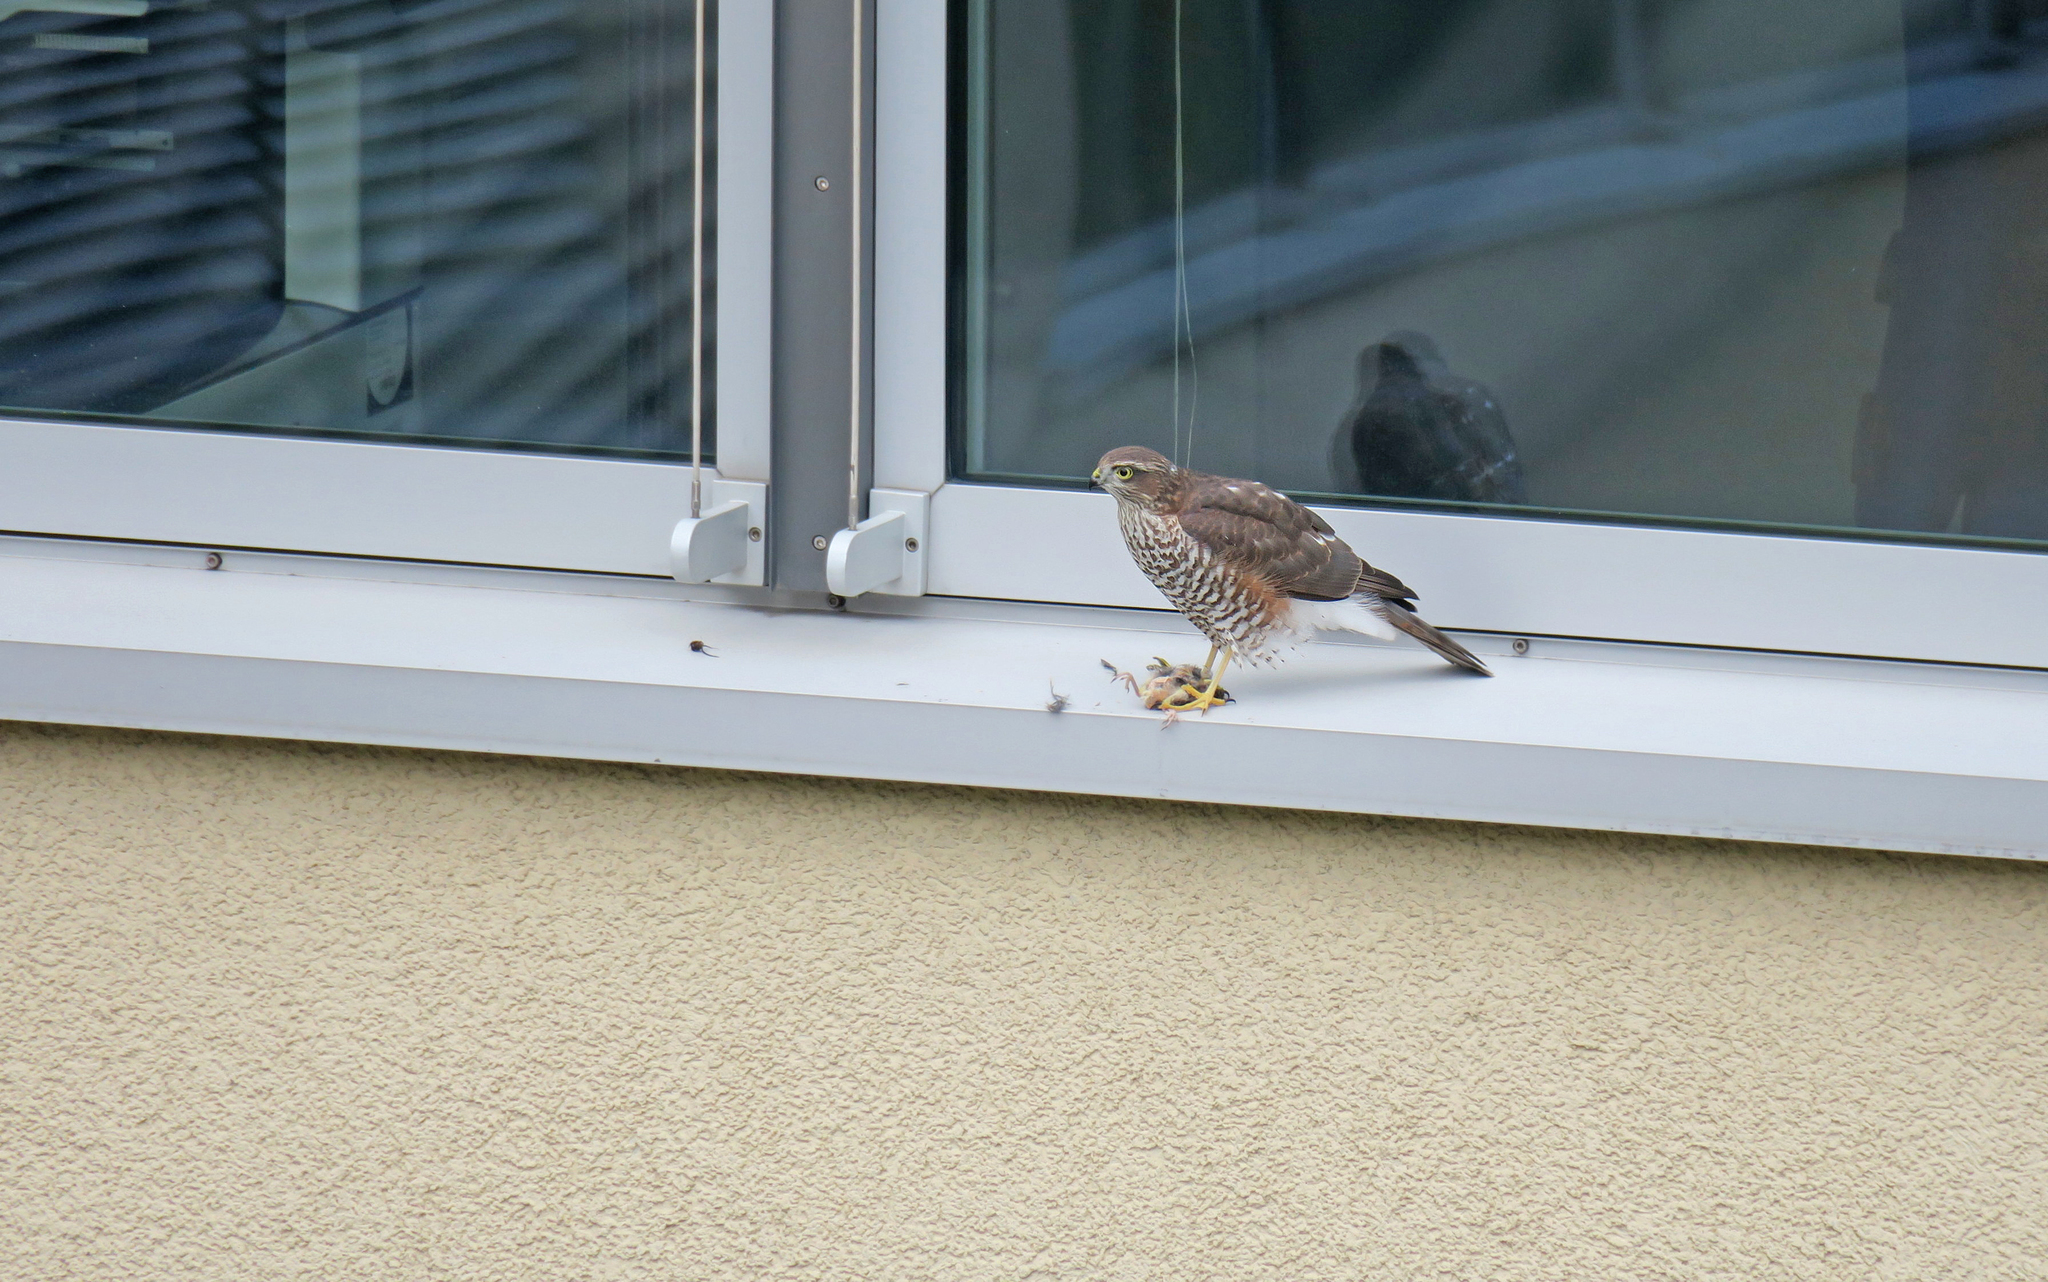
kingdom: Animalia
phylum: Chordata
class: Aves
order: Accipitriformes
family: Accipitridae
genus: Accipiter
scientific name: Accipiter nisus
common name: Eurasian sparrowhawk
